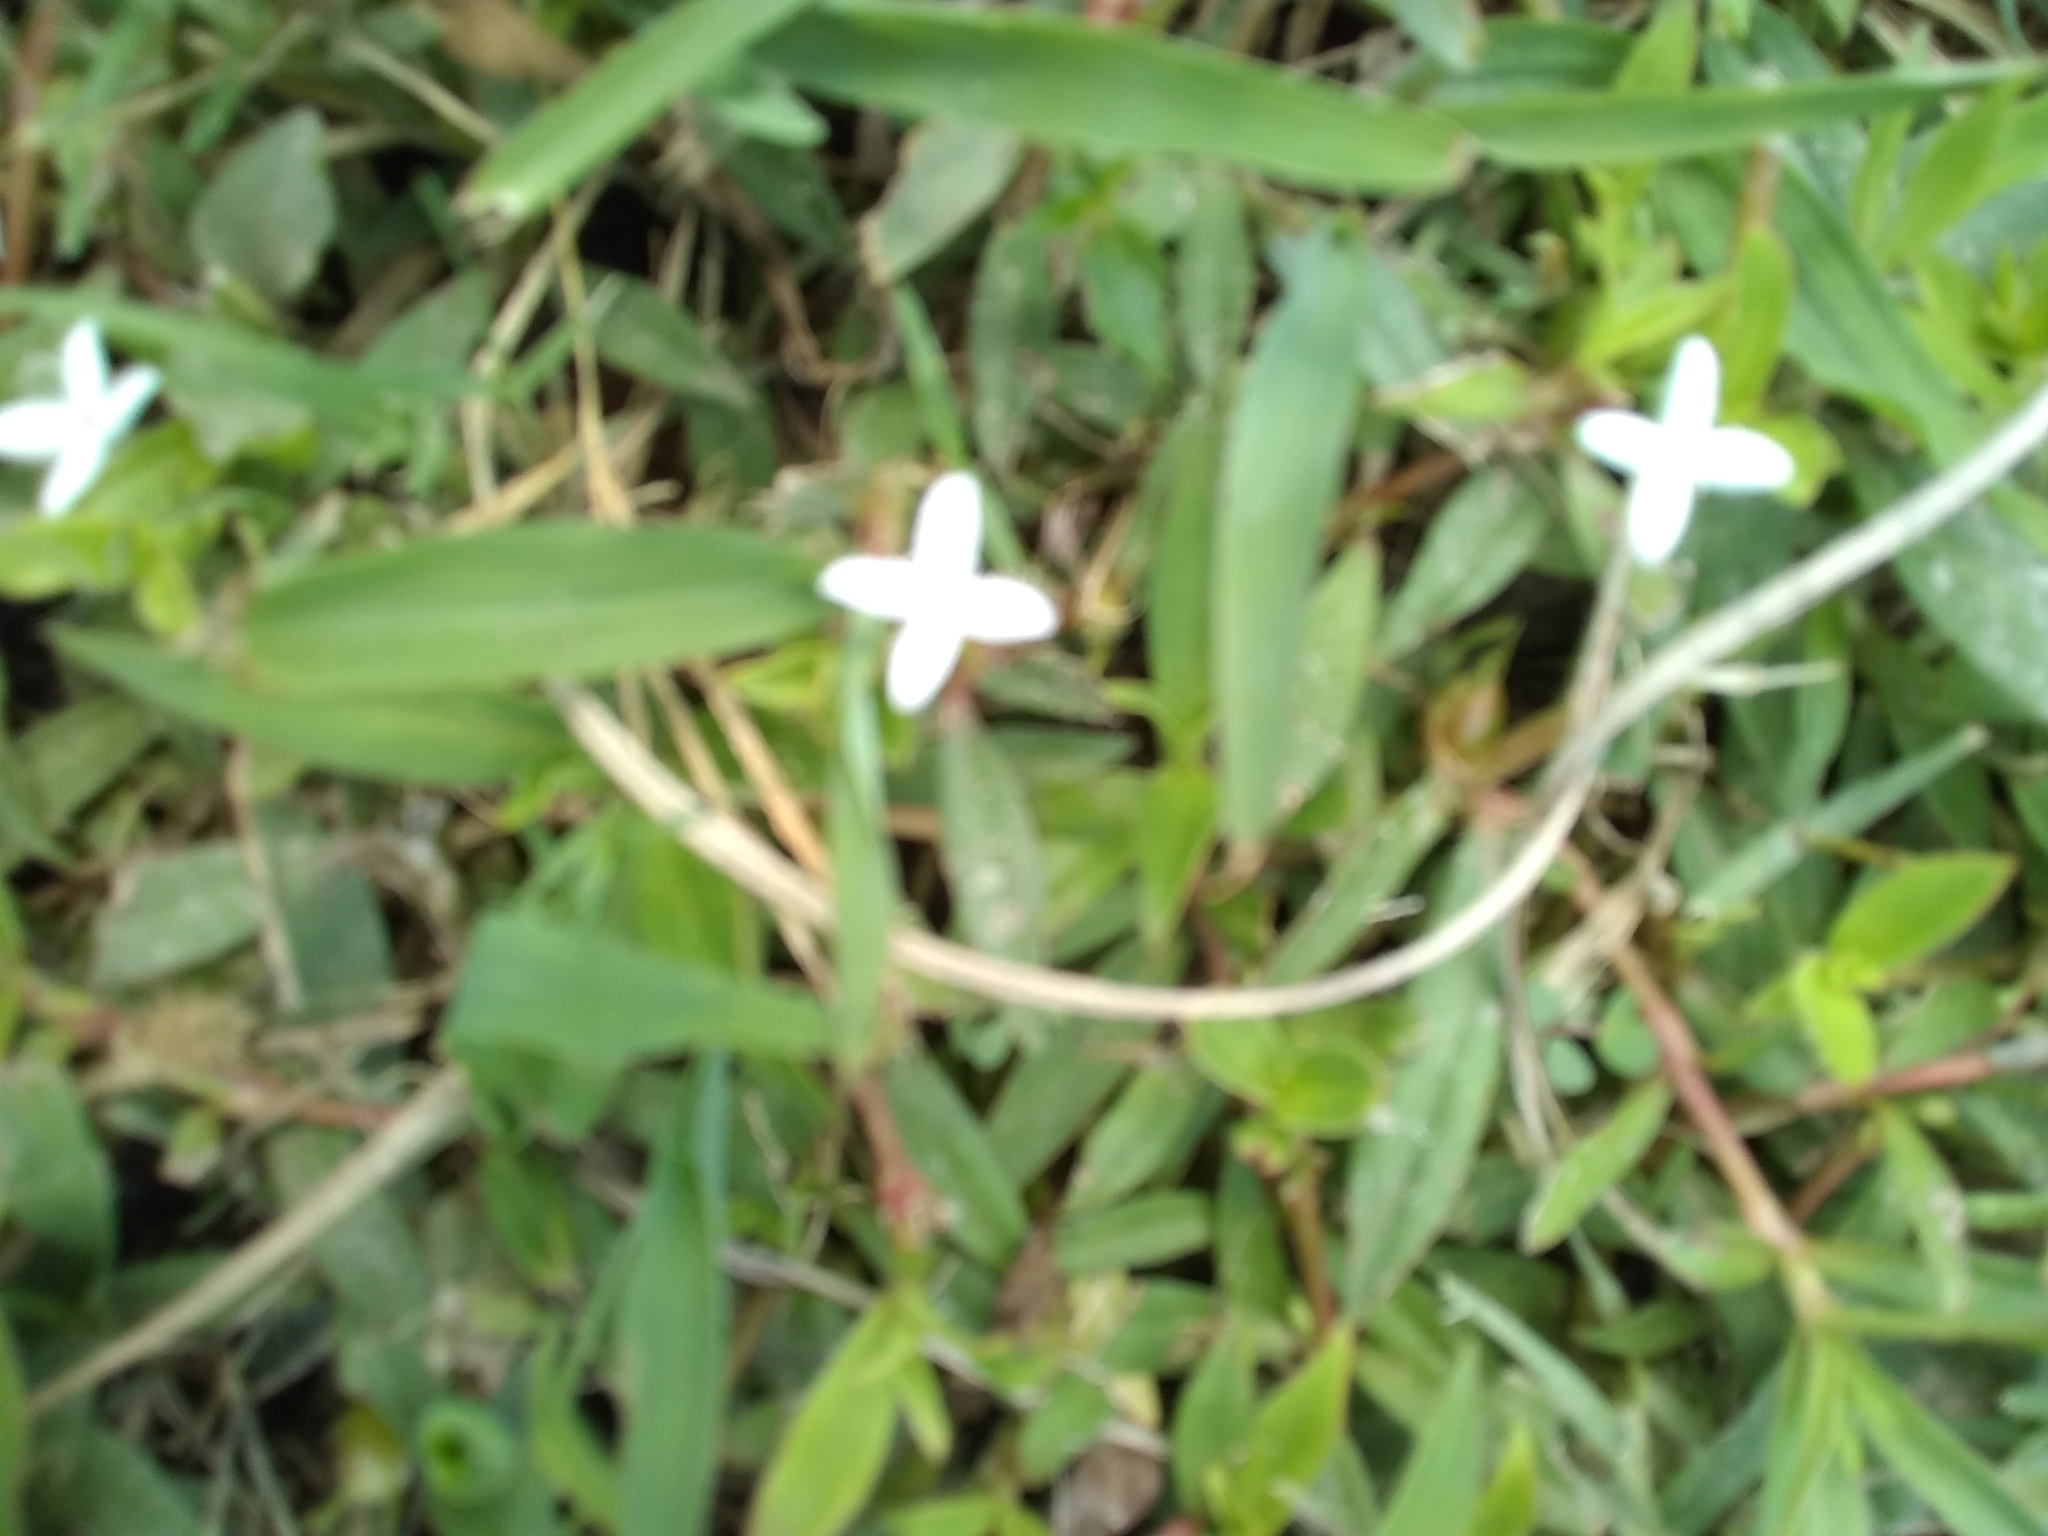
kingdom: Plantae
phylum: Tracheophyta
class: Magnoliopsida
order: Gentianales
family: Rubiaceae
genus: Diodia
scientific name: Diodia virginiana
